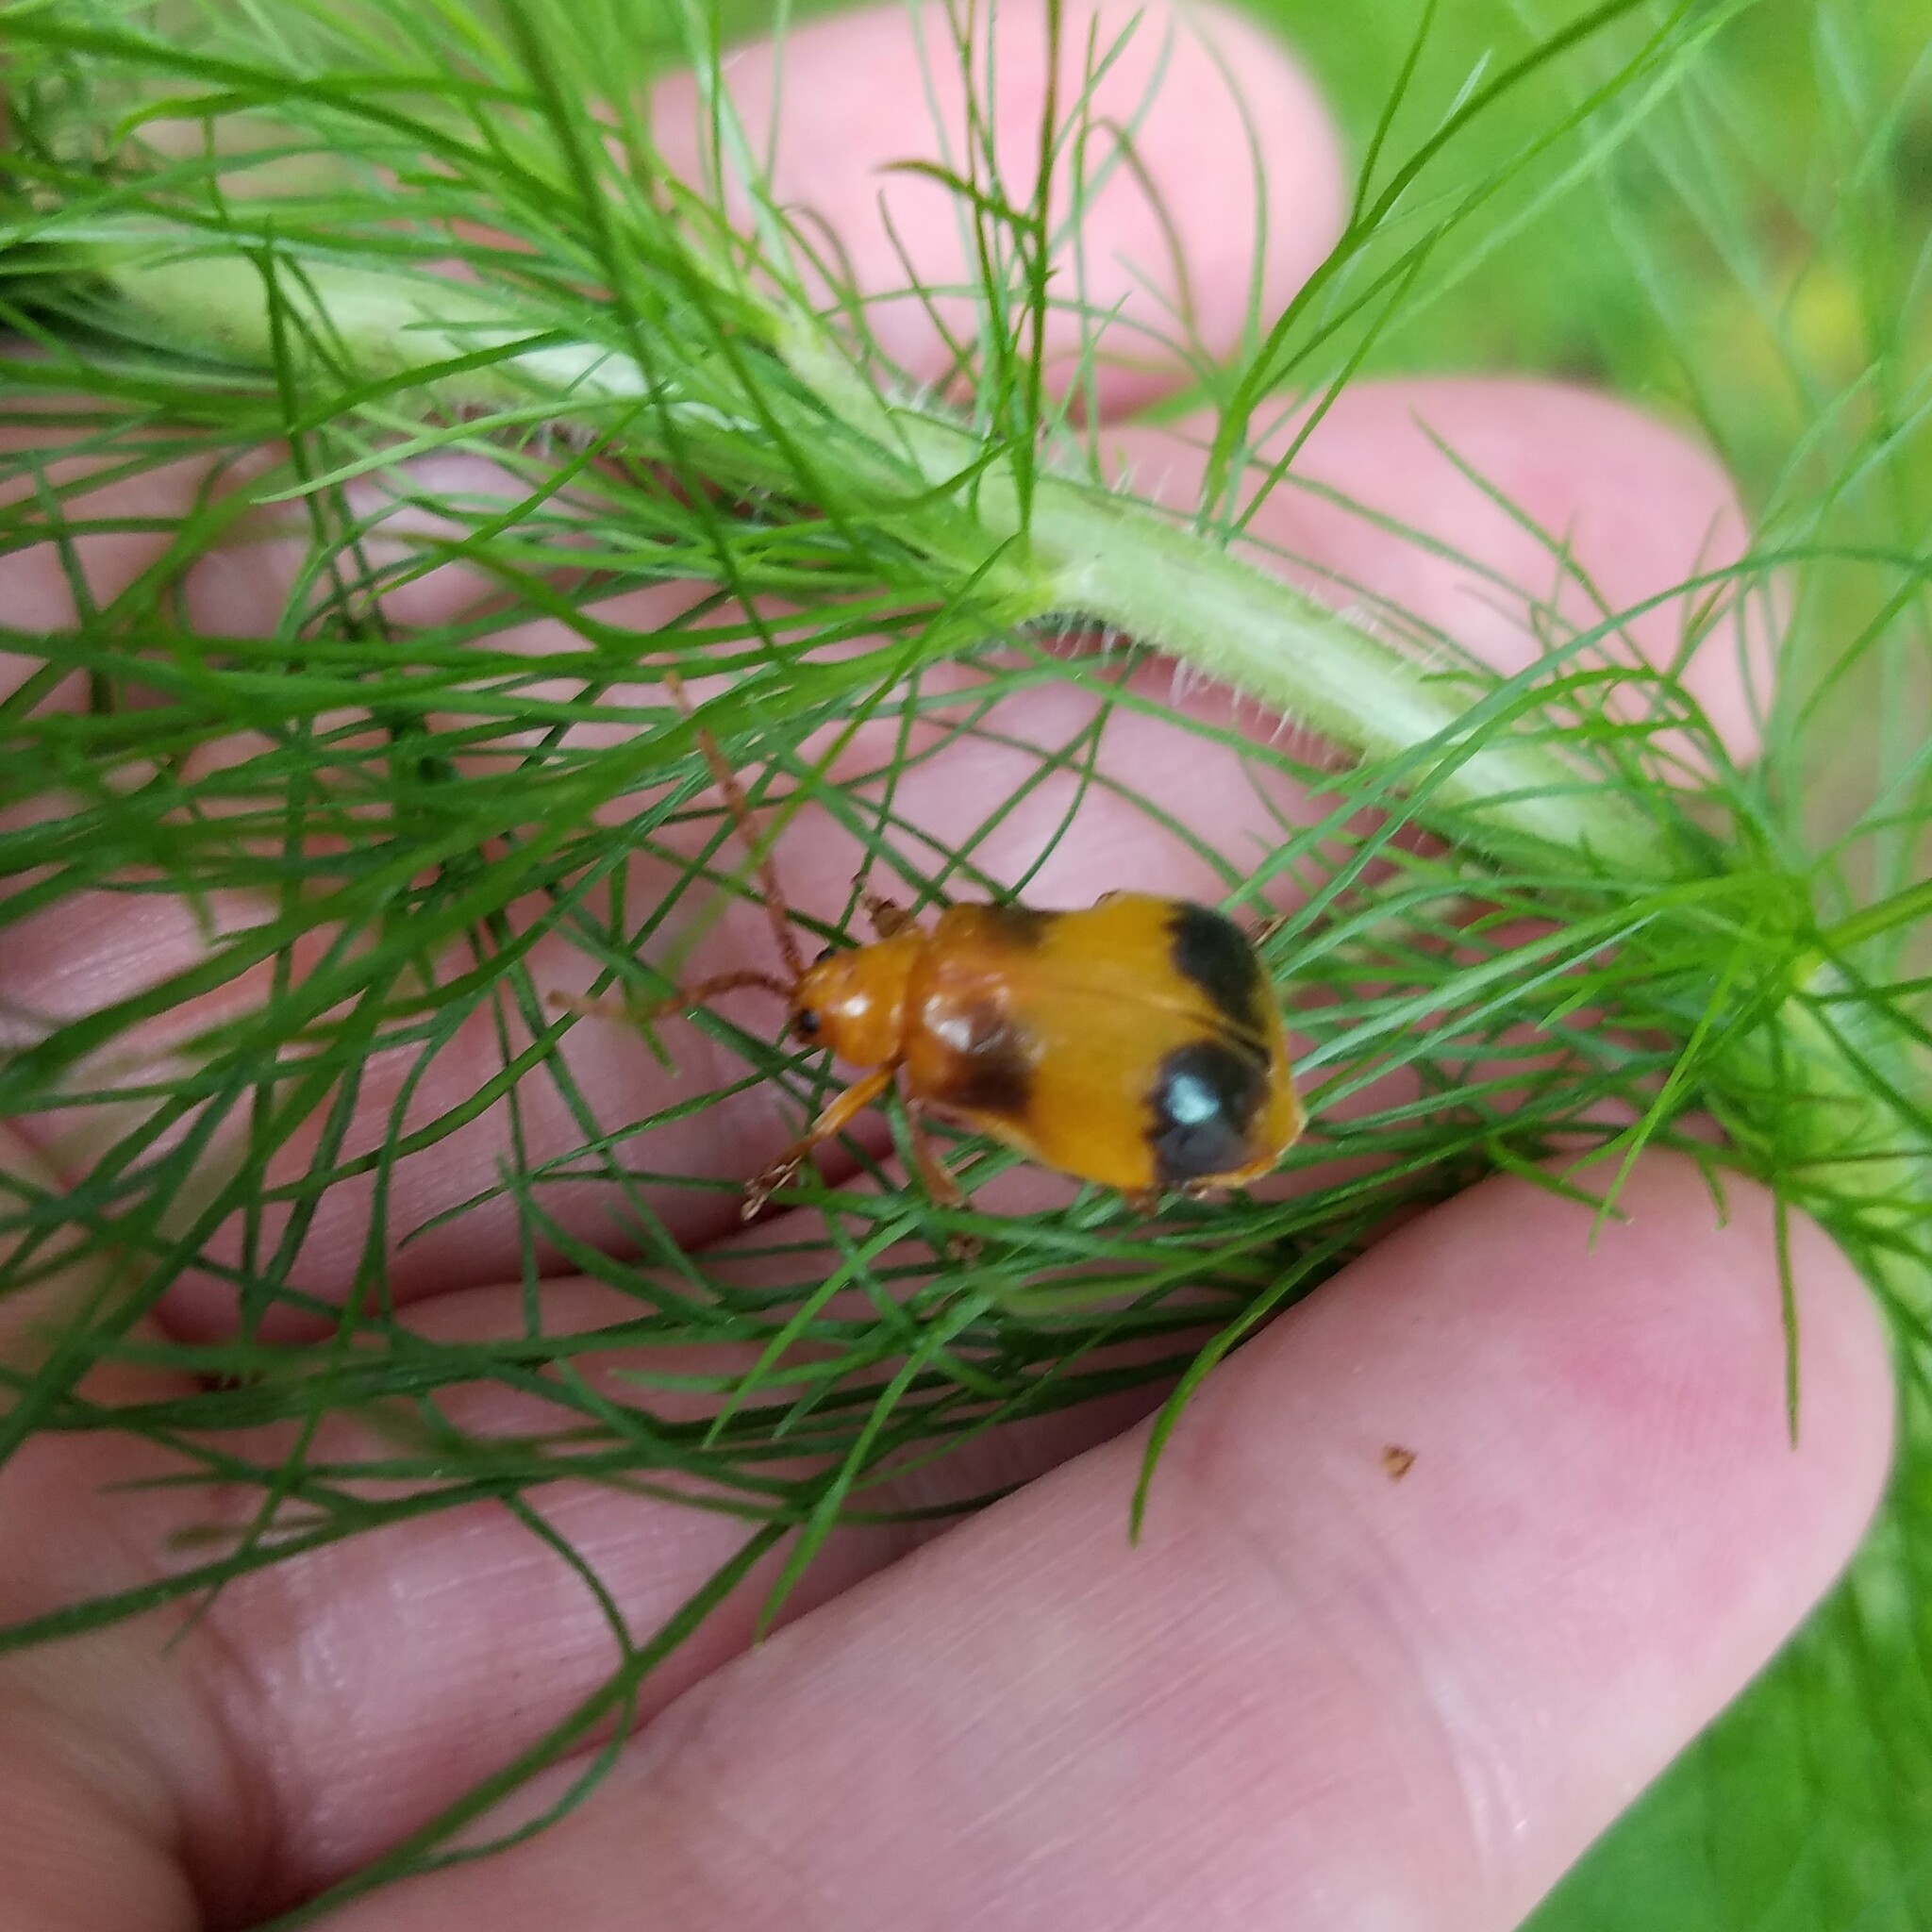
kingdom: Animalia
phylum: Arthropoda
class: Insecta
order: Coleoptera
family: Chrysomelidae
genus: Monocesta
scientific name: Monocesta coryli
